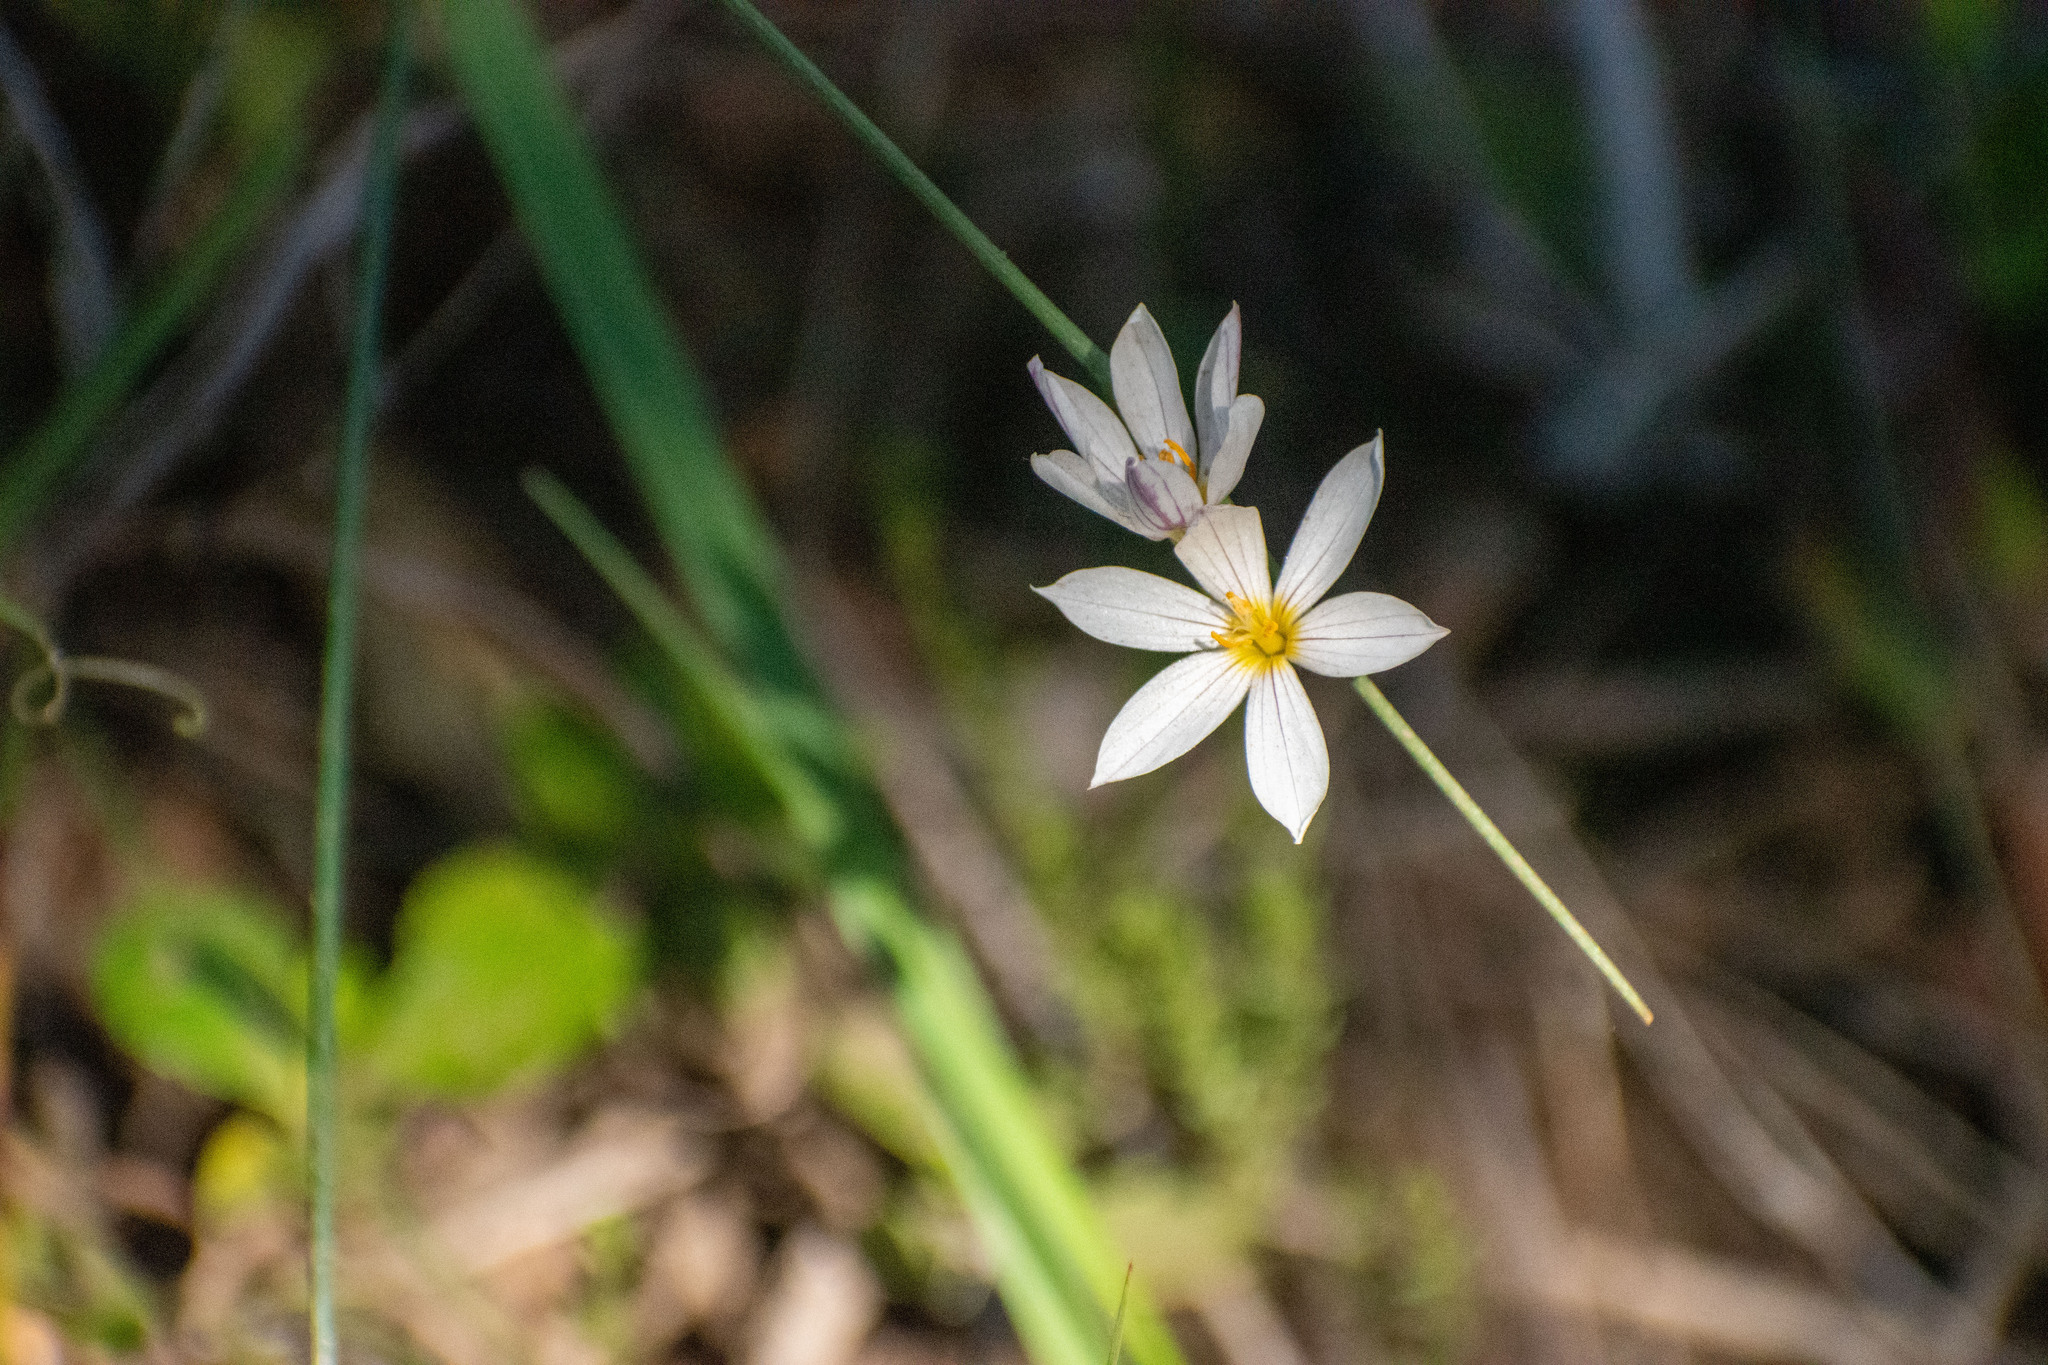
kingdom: Plantae
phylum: Tracheophyta
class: Liliopsida
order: Asparagales
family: Iridaceae
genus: Olsynium
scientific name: Olsynium junceum
